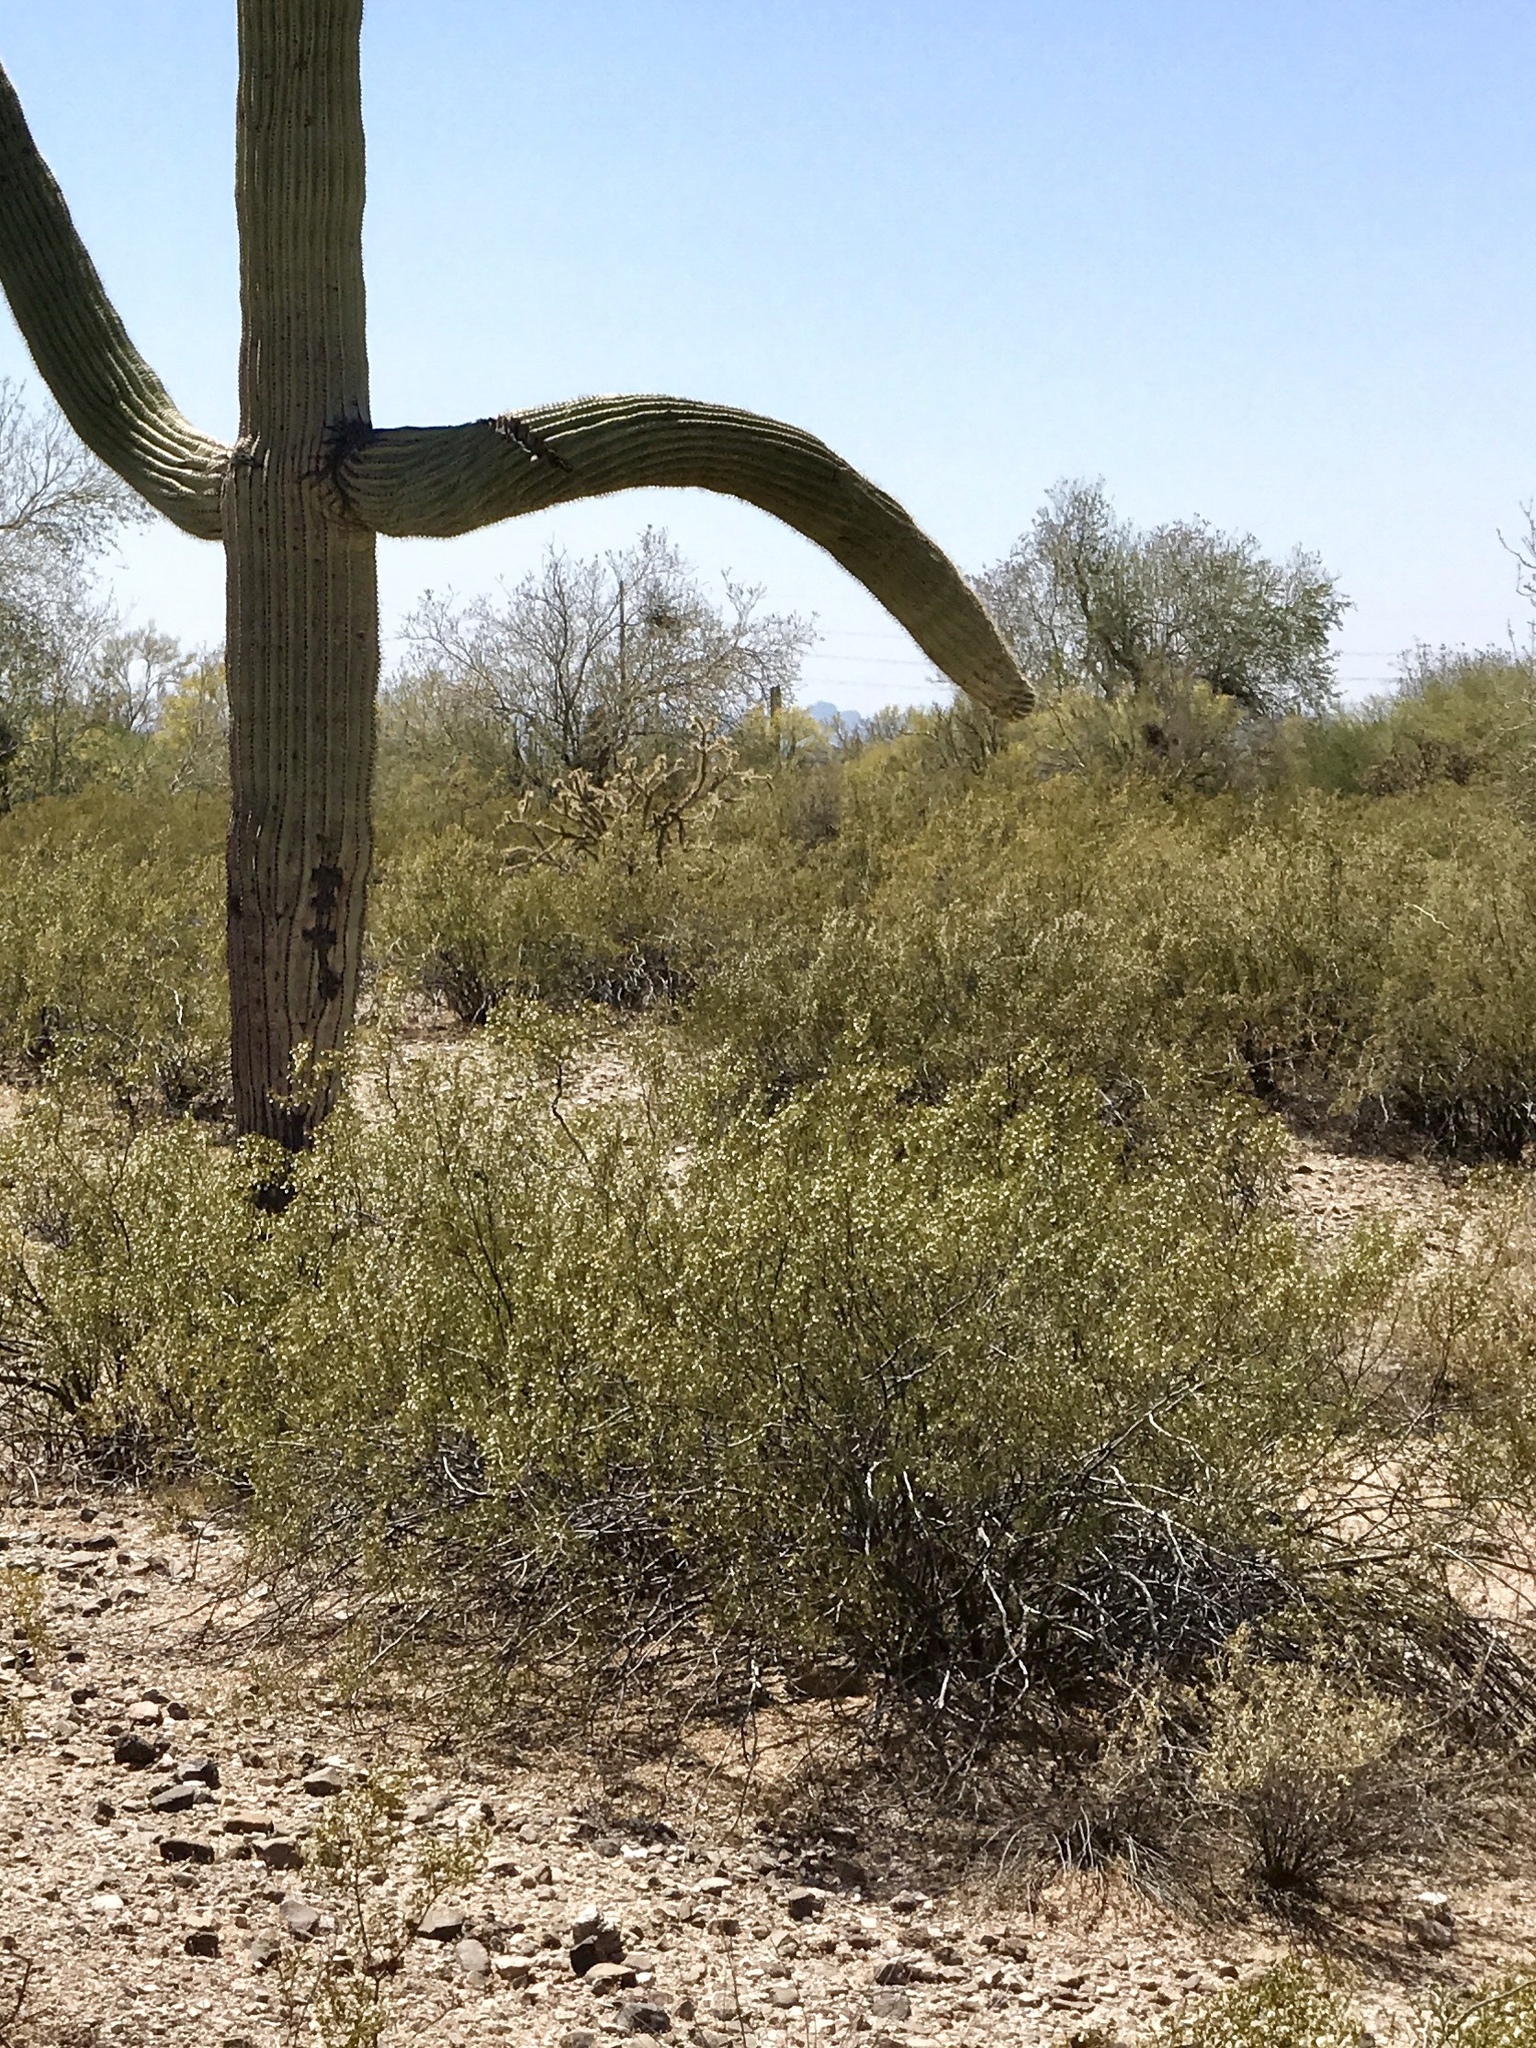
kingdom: Plantae
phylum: Tracheophyta
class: Magnoliopsida
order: Zygophyllales
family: Zygophyllaceae
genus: Larrea
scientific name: Larrea tridentata
